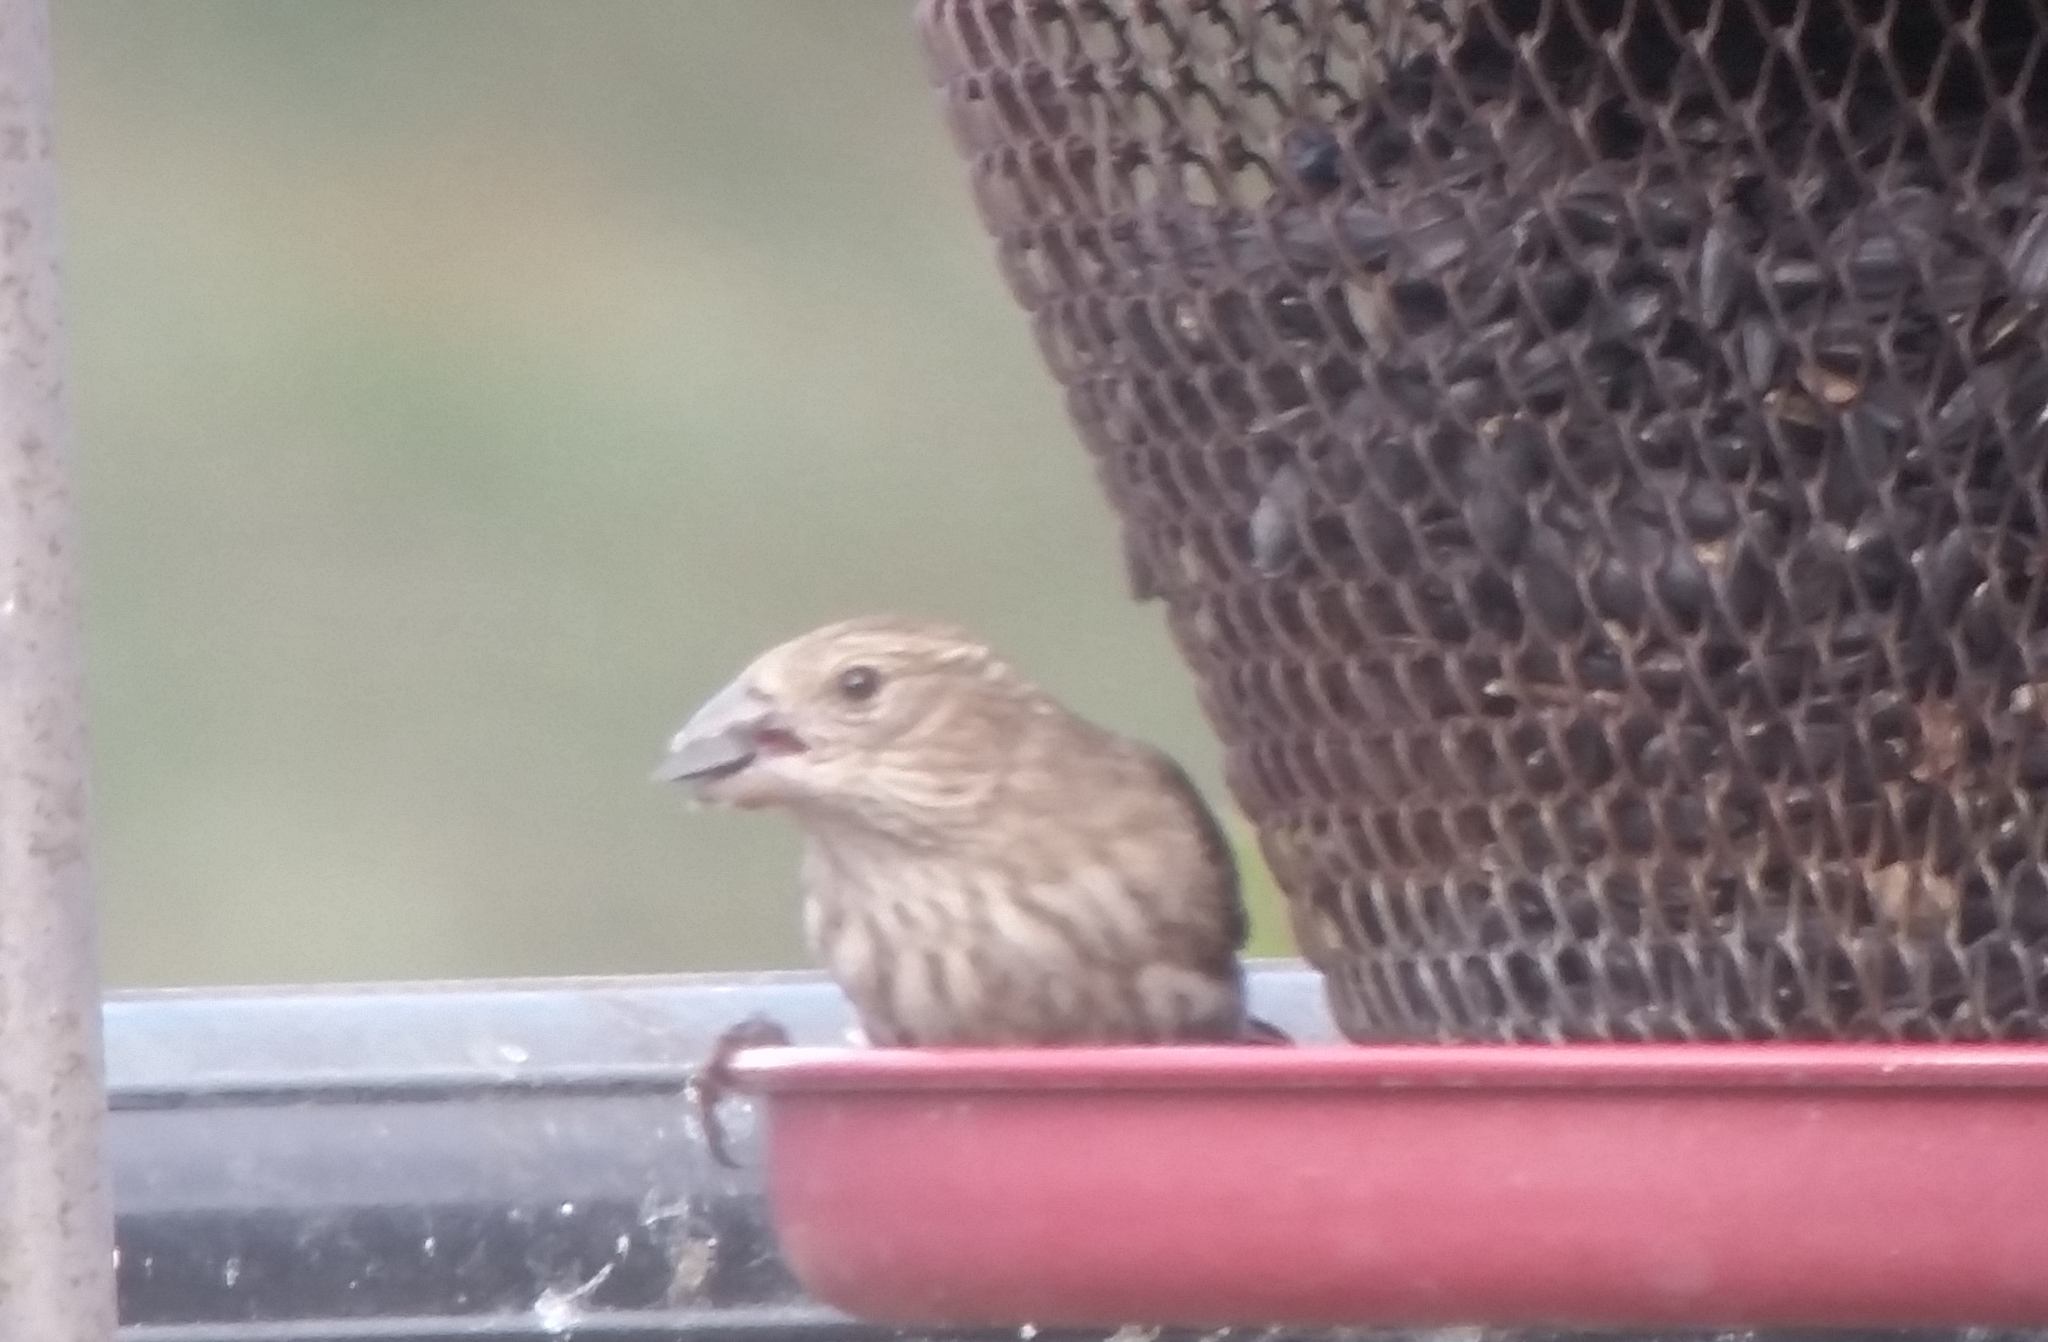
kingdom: Animalia
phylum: Chordata
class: Aves
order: Passeriformes
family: Fringillidae
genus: Haemorhous
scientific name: Haemorhous mexicanus
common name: House finch
